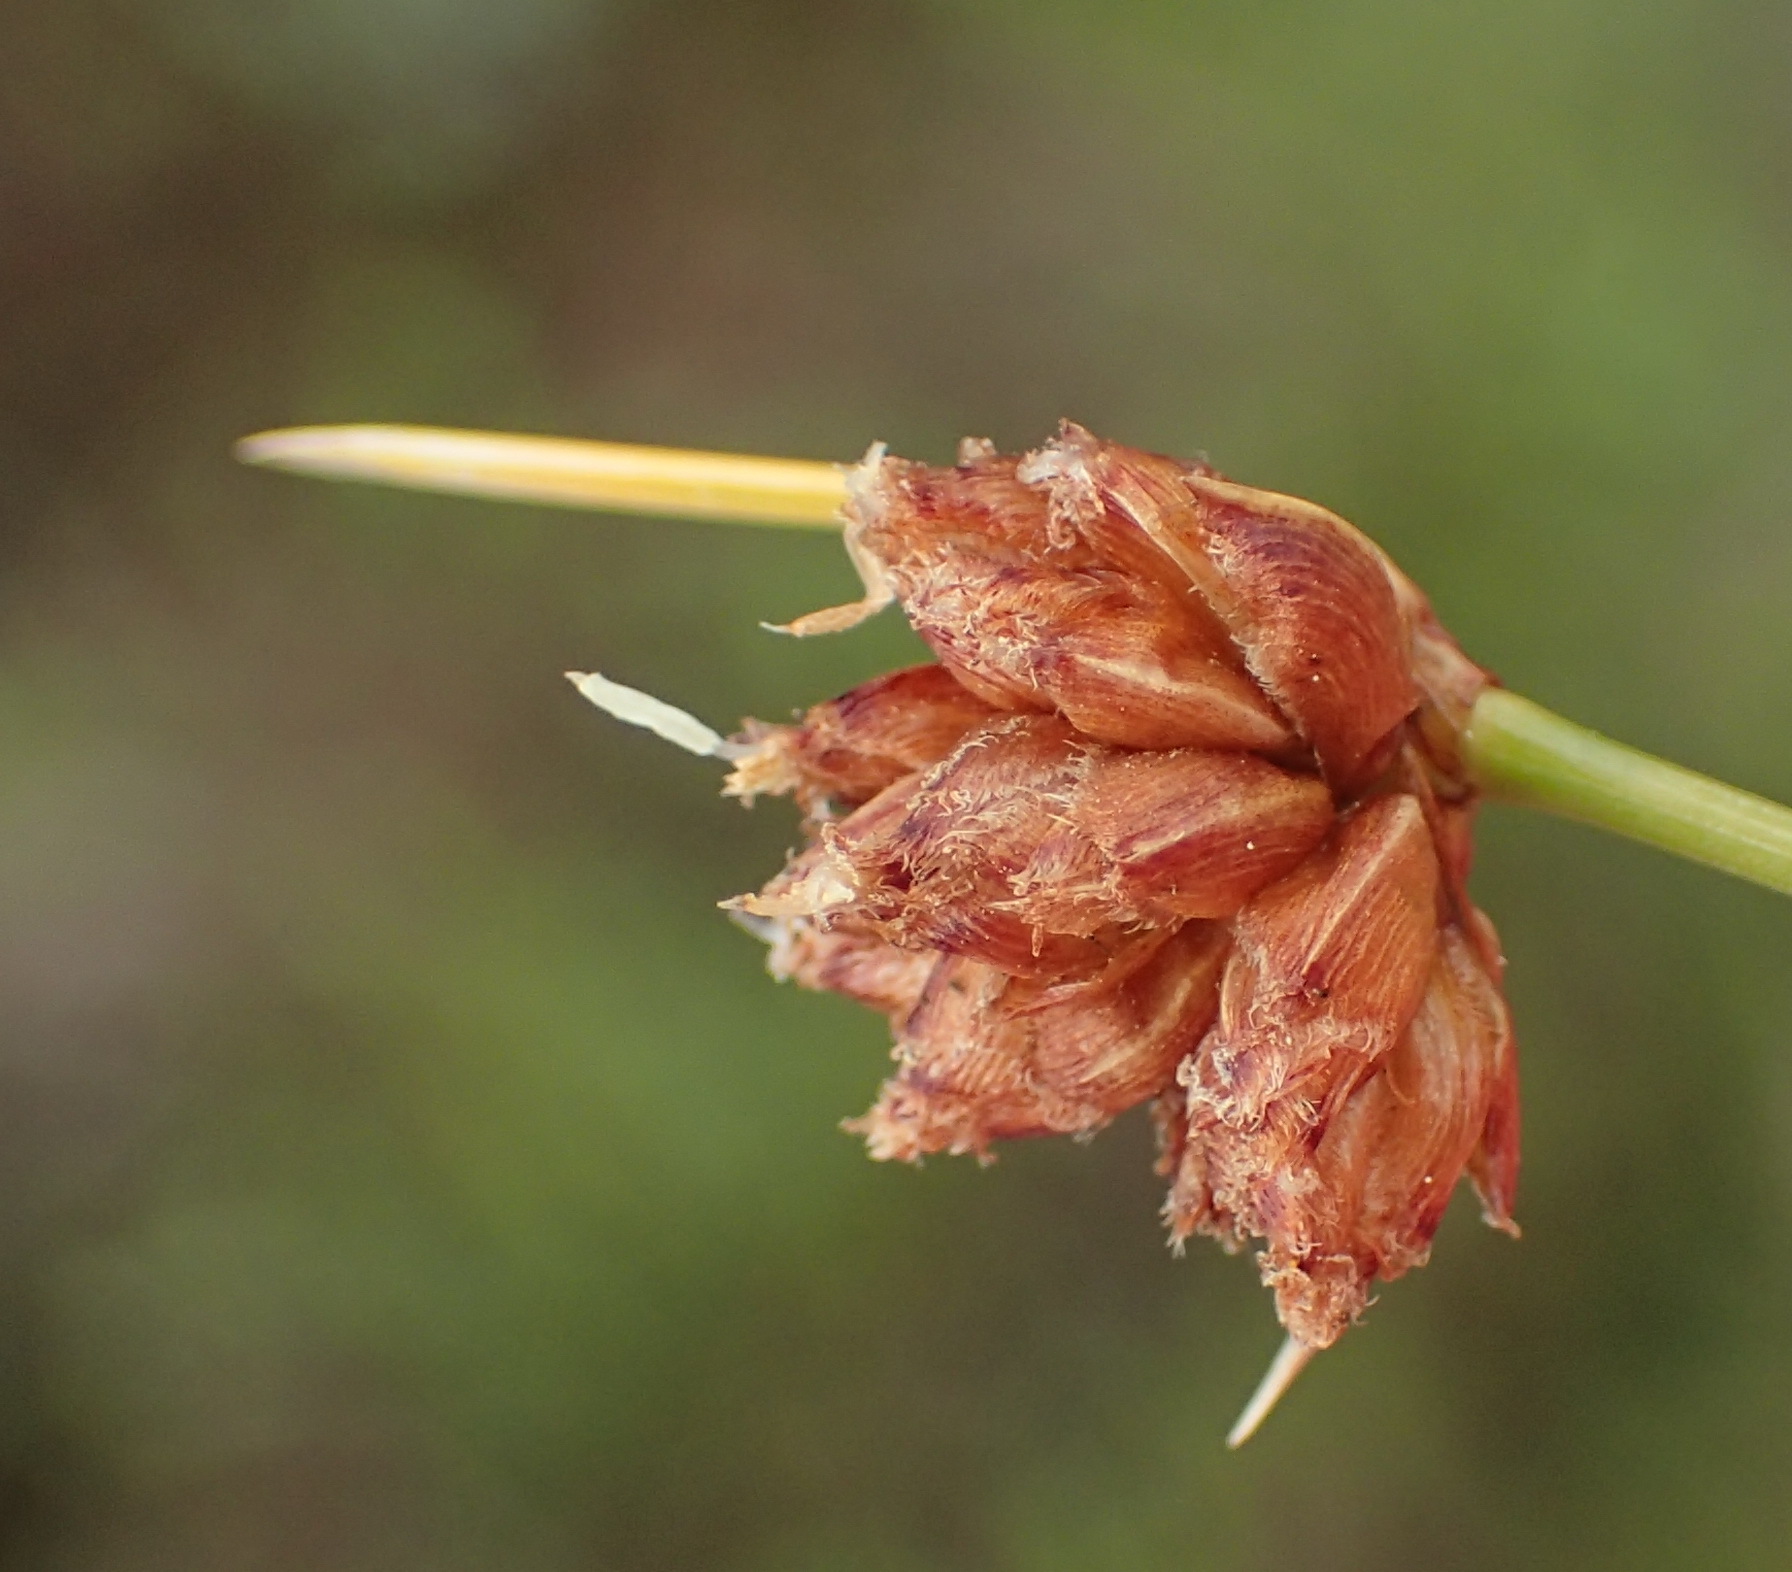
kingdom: Plantae
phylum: Tracheophyta
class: Liliopsida
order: Poales
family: Cyperaceae
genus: Ficinia
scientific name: Ficinia laciniata
